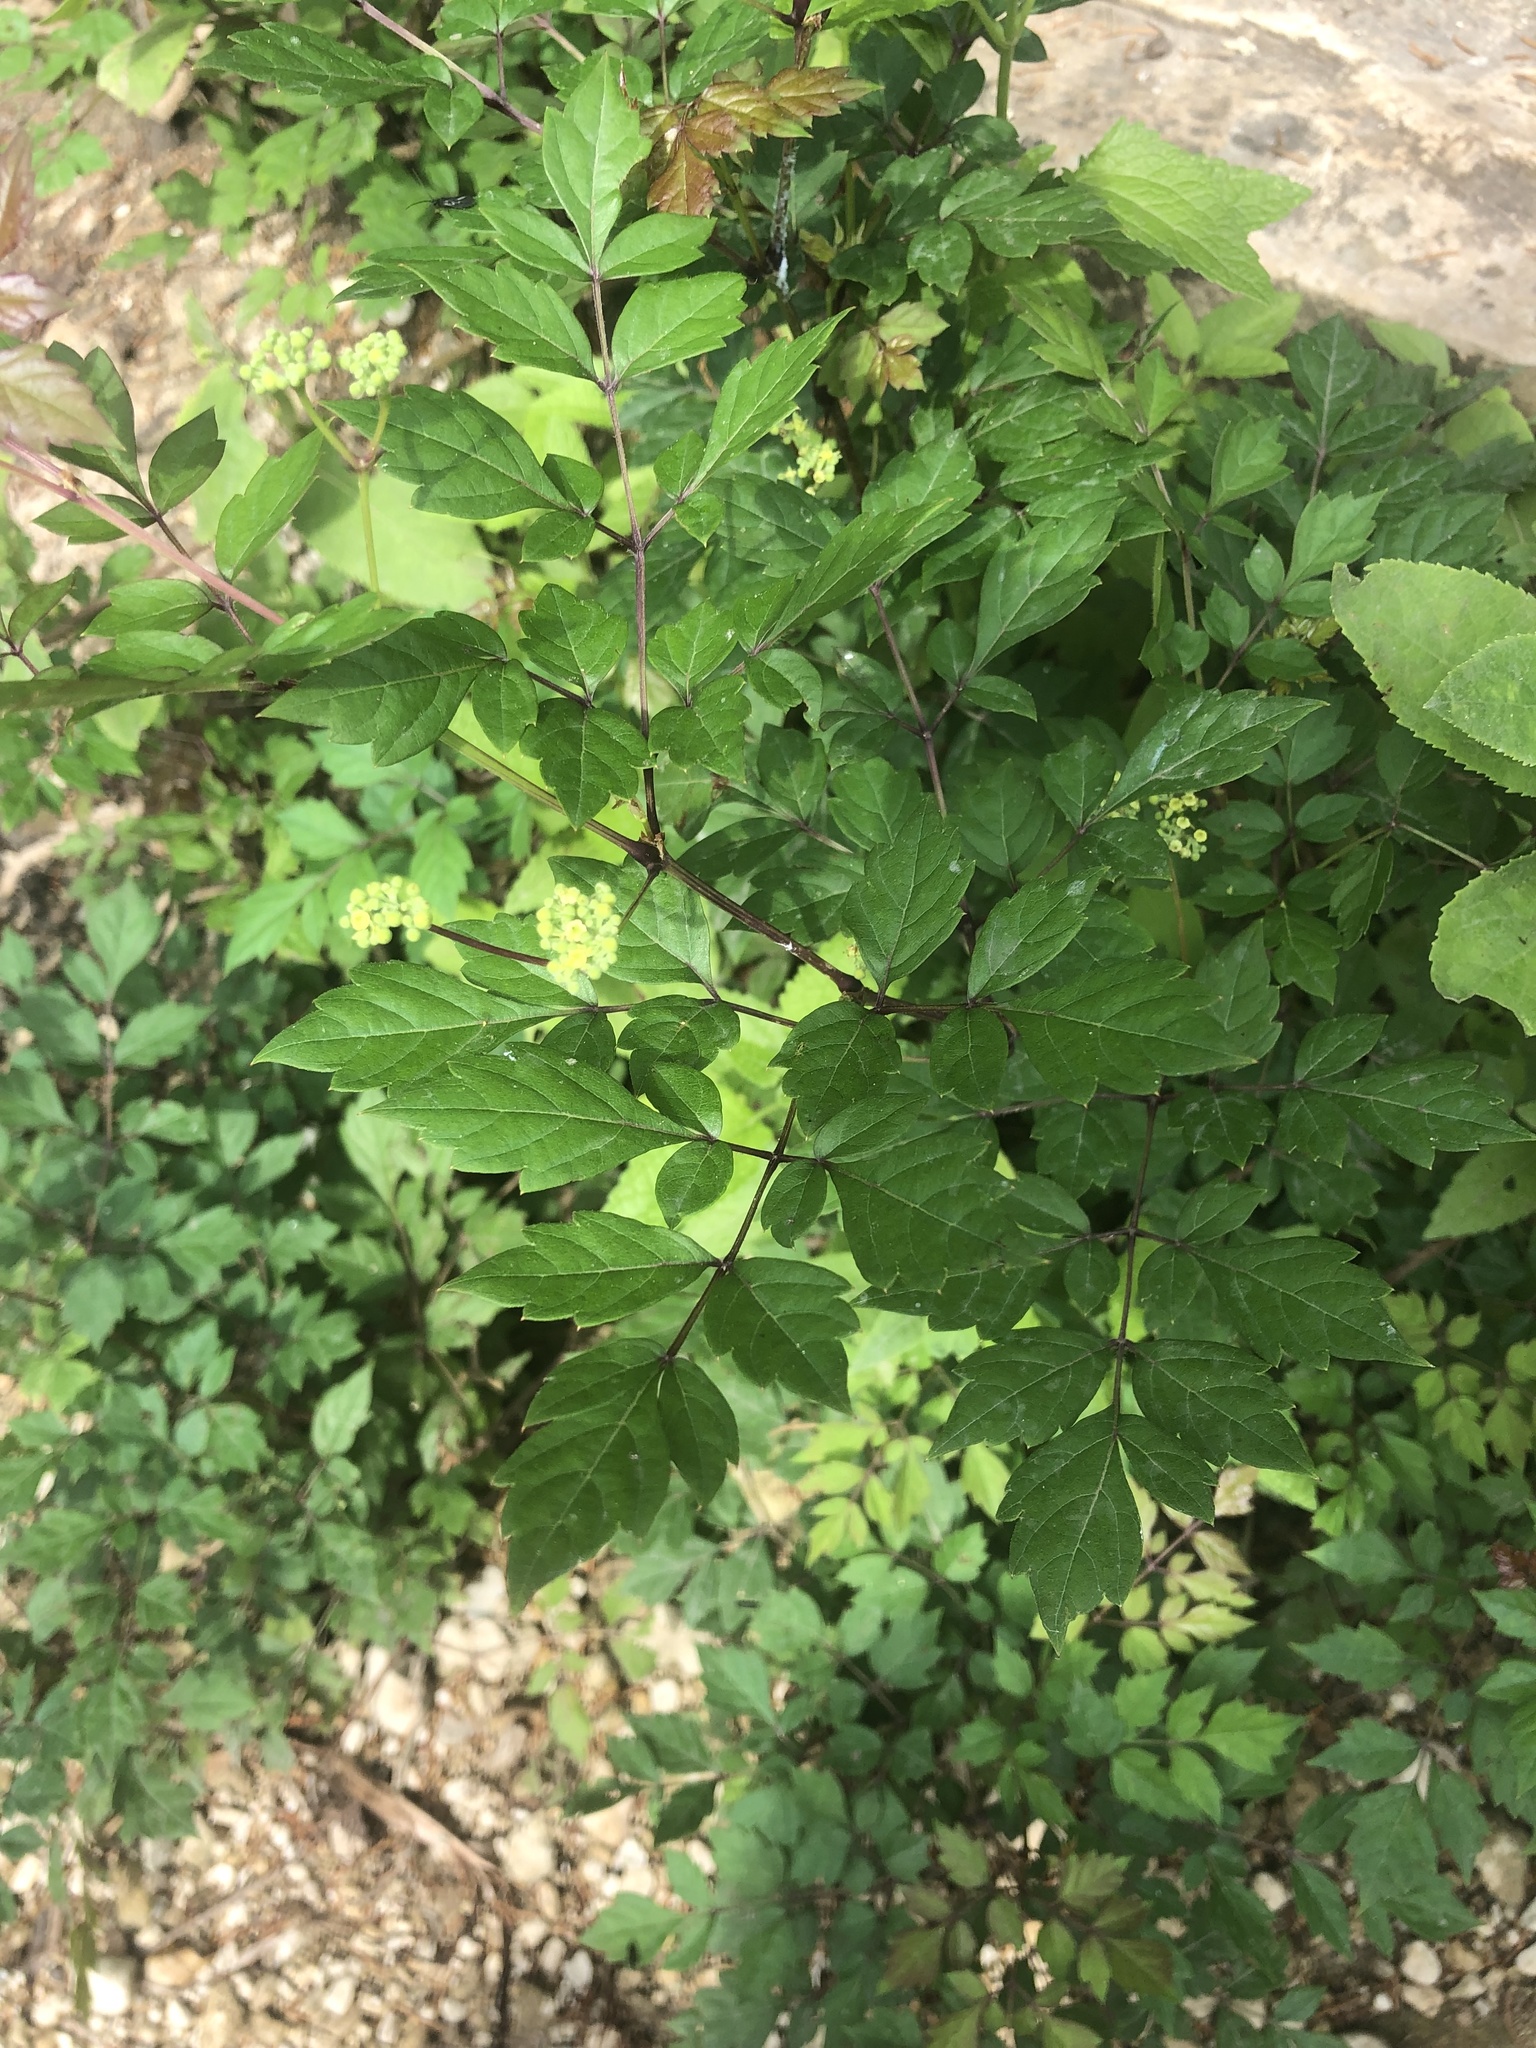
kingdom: Plantae
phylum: Tracheophyta
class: Magnoliopsida
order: Vitales
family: Vitaceae
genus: Nekemias
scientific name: Nekemias arborea
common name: Peppervine
